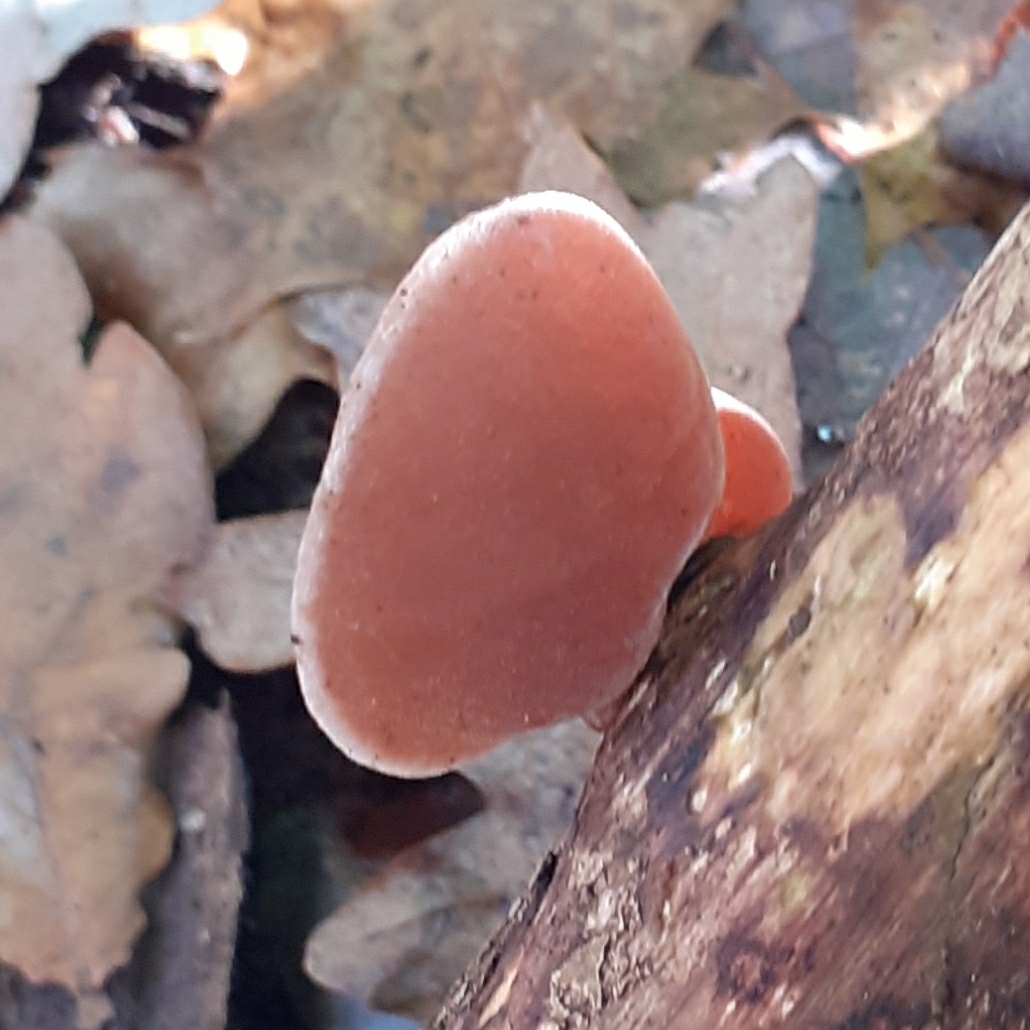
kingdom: Fungi
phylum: Basidiomycota
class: Agaricomycetes
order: Auriculariales
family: Auriculariaceae
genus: Auricularia
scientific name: Auricularia auricula-judae
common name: Jelly ear
